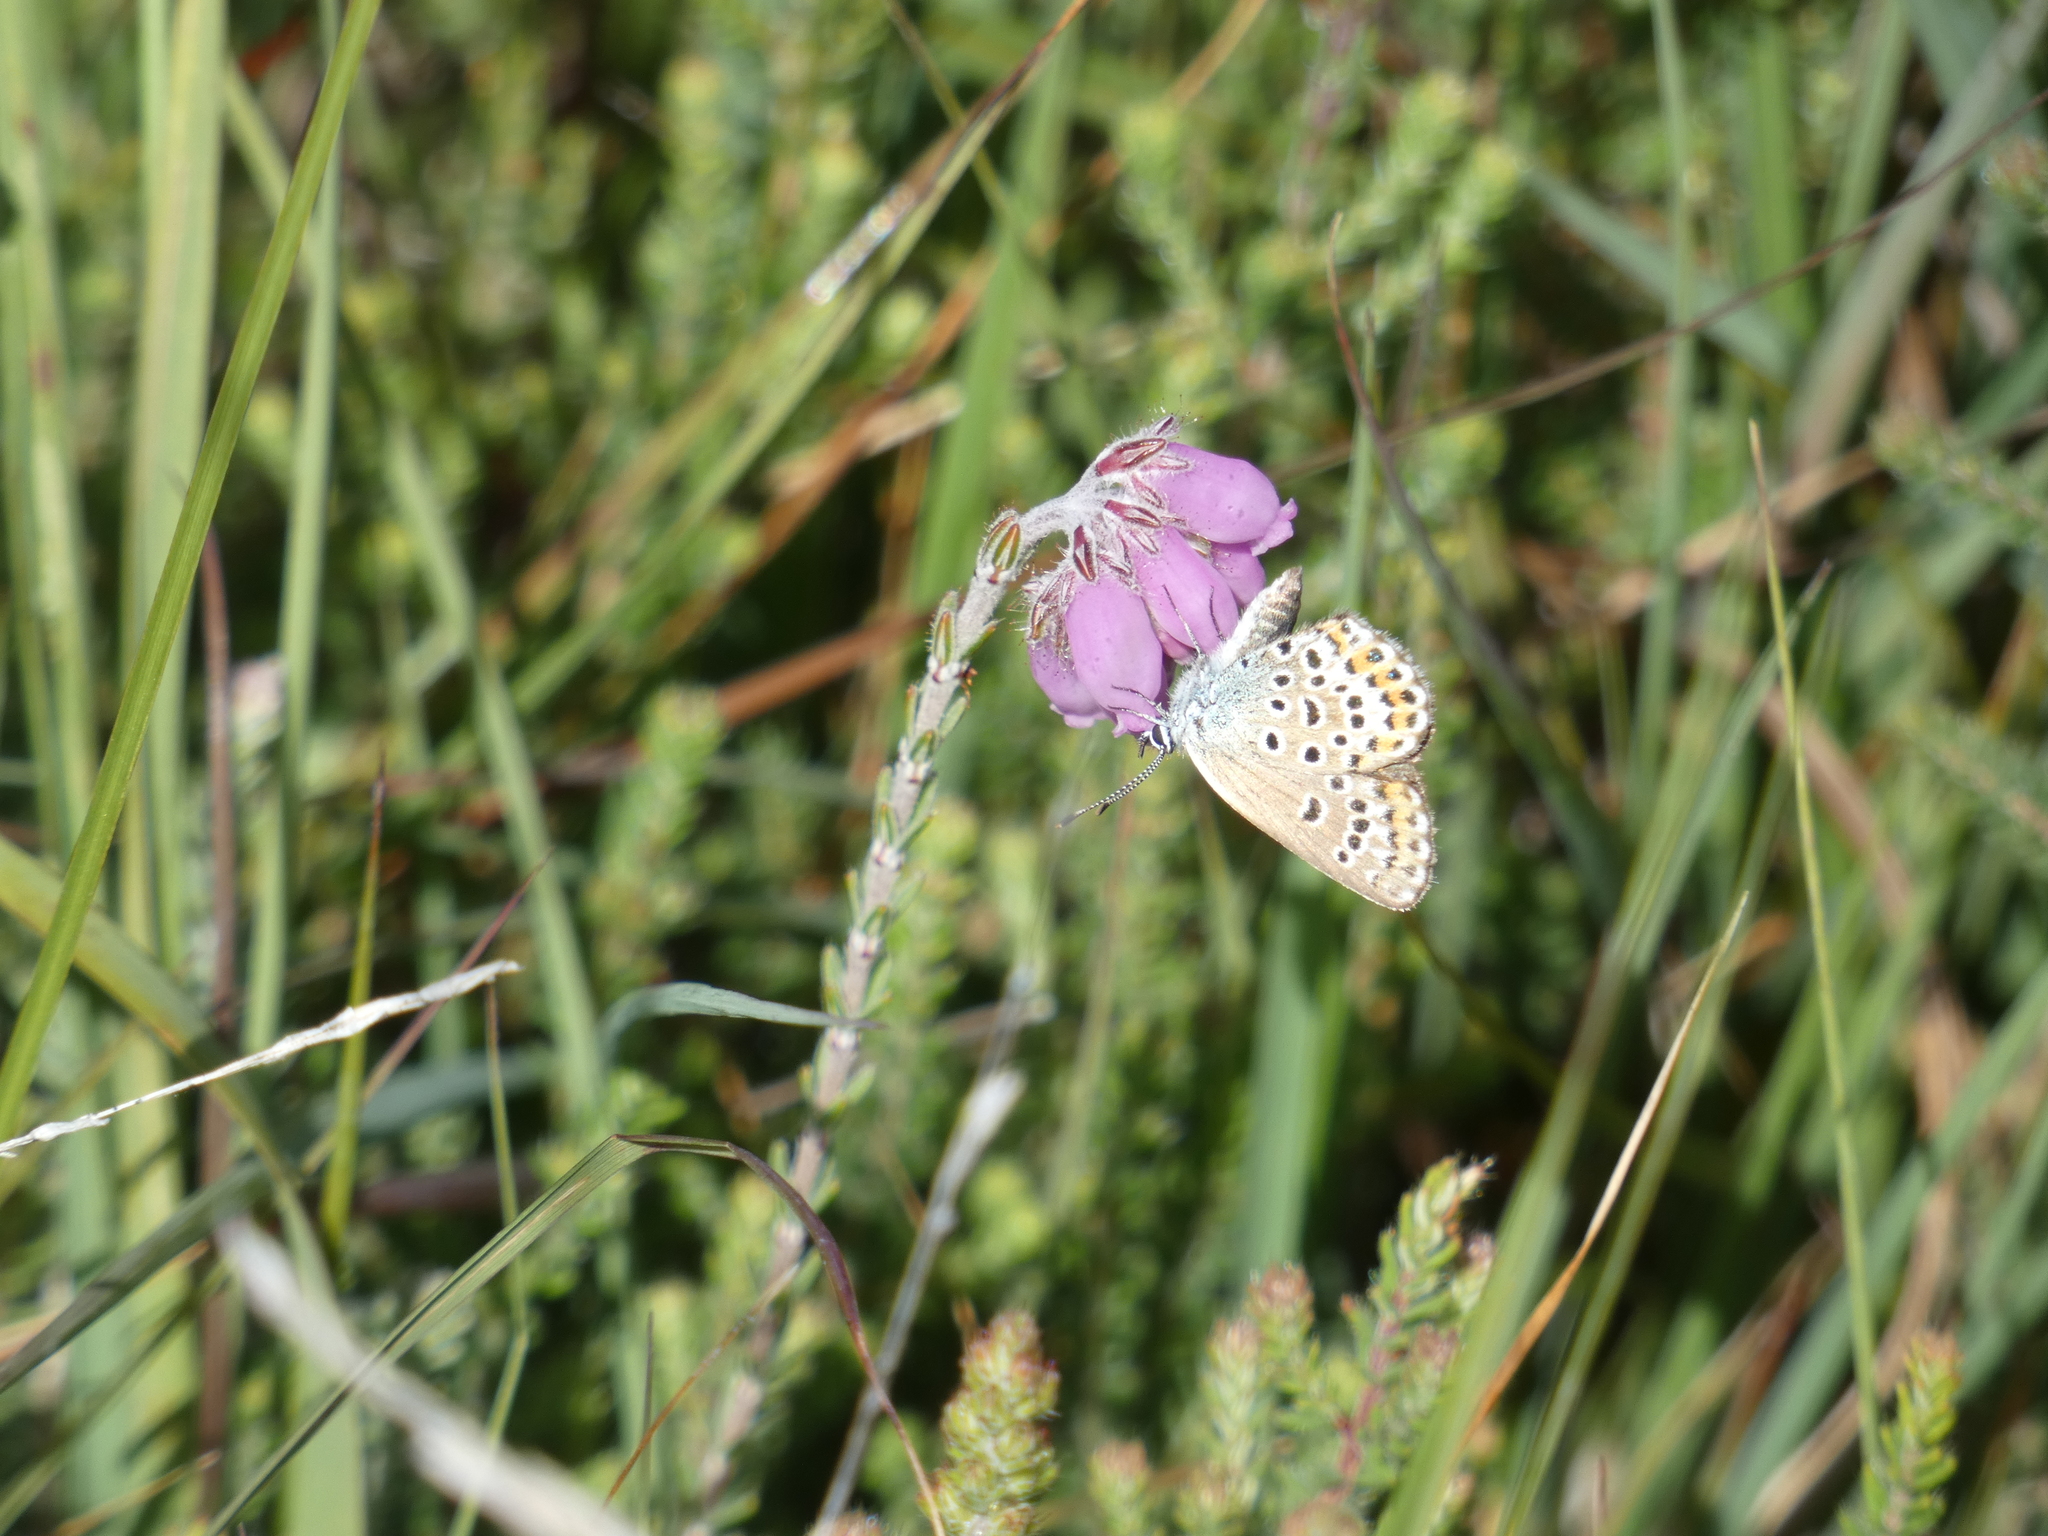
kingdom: Animalia
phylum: Arthropoda
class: Insecta
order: Lepidoptera
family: Lycaenidae
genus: Plebejus
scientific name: Plebejus argus
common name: Silver-studded blue
